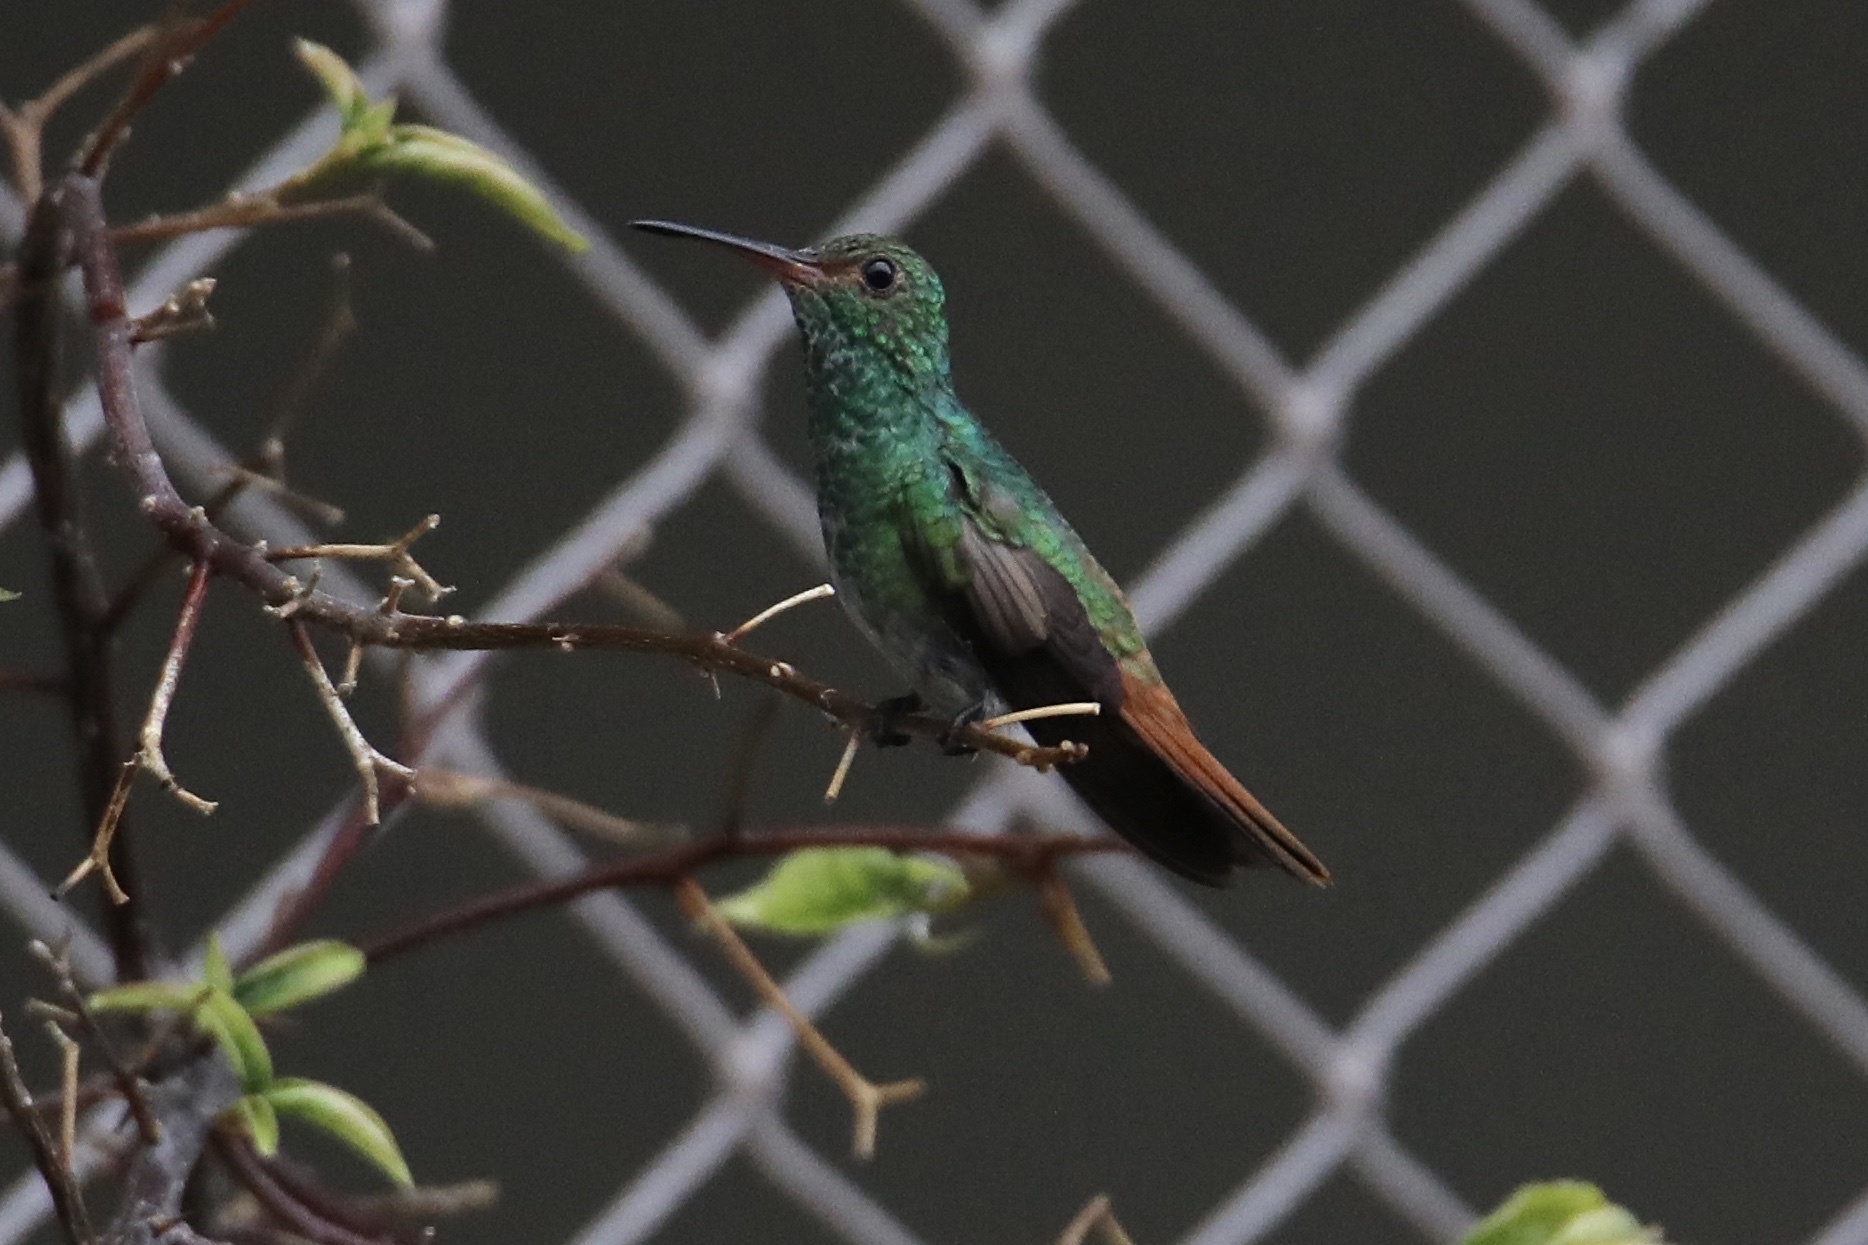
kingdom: Animalia
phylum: Chordata
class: Aves
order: Apodiformes
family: Trochilidae
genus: Amazilia
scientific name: Amazilia tzacatl
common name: Rufous-tailed hummingbird
